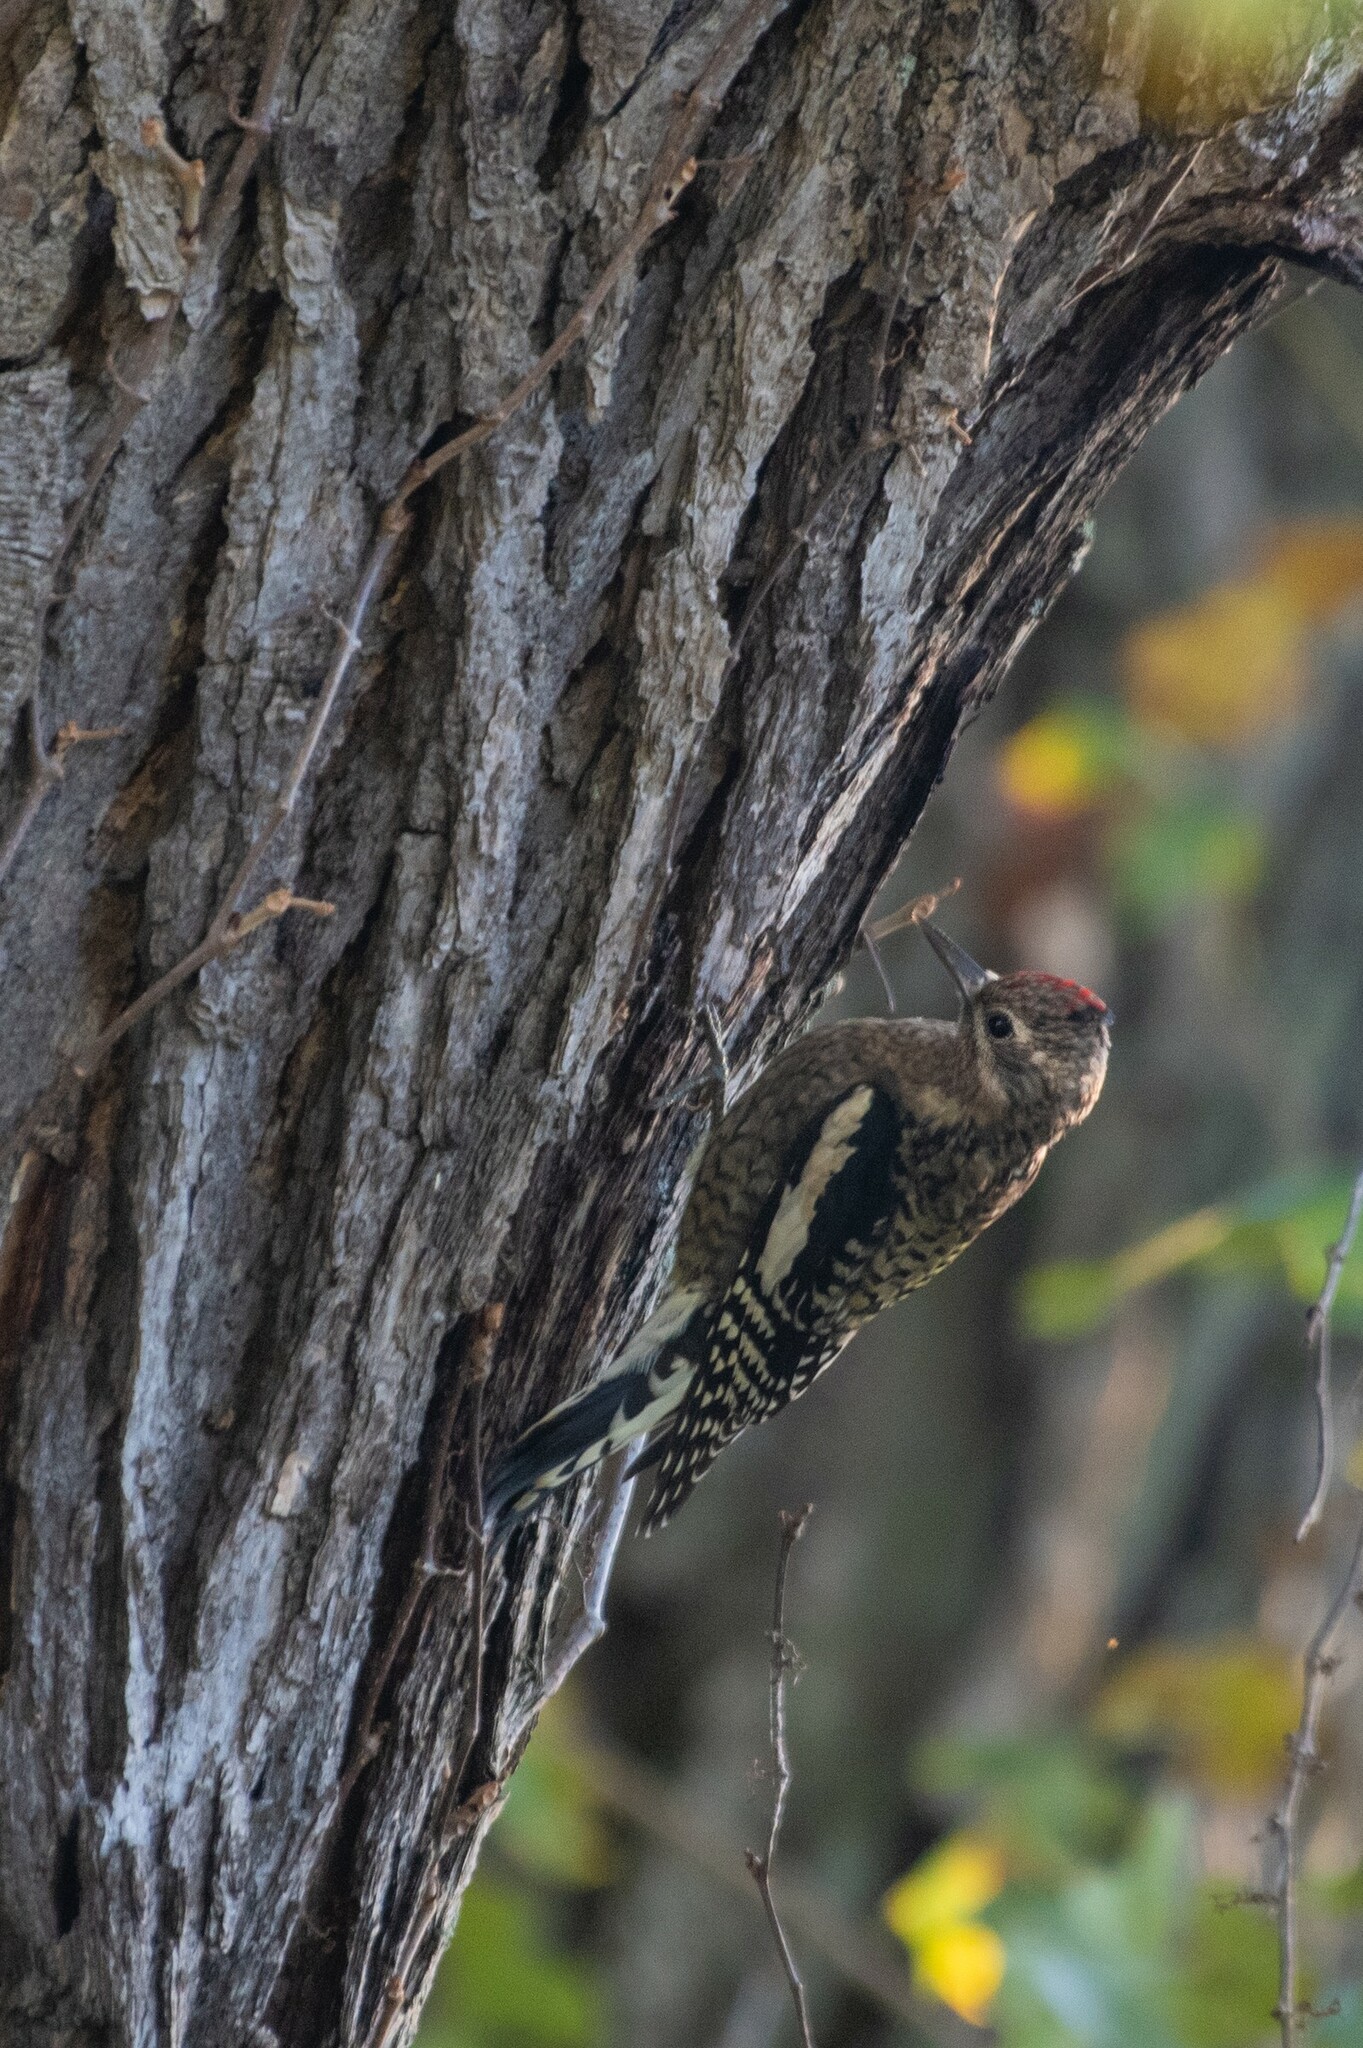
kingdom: Animalia
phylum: Chordata
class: Aves
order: Piciformes
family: Picidae
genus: Sphyrapicus
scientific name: Sphyrapicus varius
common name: Yellow-bellied sapsucker
